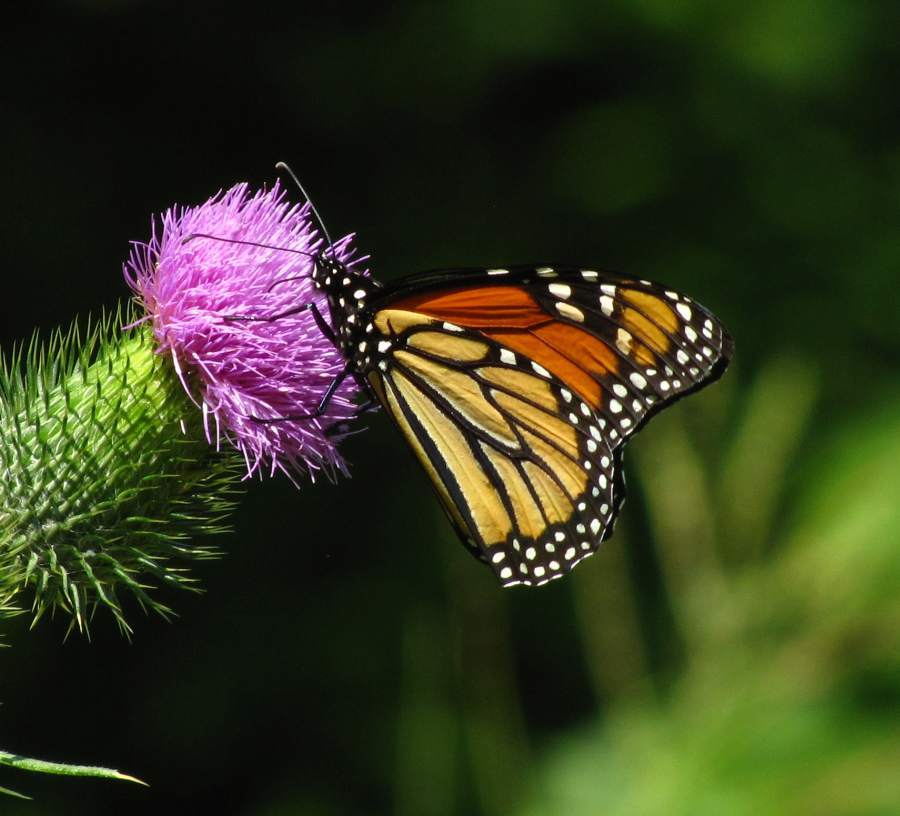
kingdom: Animalia
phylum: Arthropoda
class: Insecta
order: Lepidoptera
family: Nymphalidae
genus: Danaus
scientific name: Danaus plexippus
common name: Monarch
